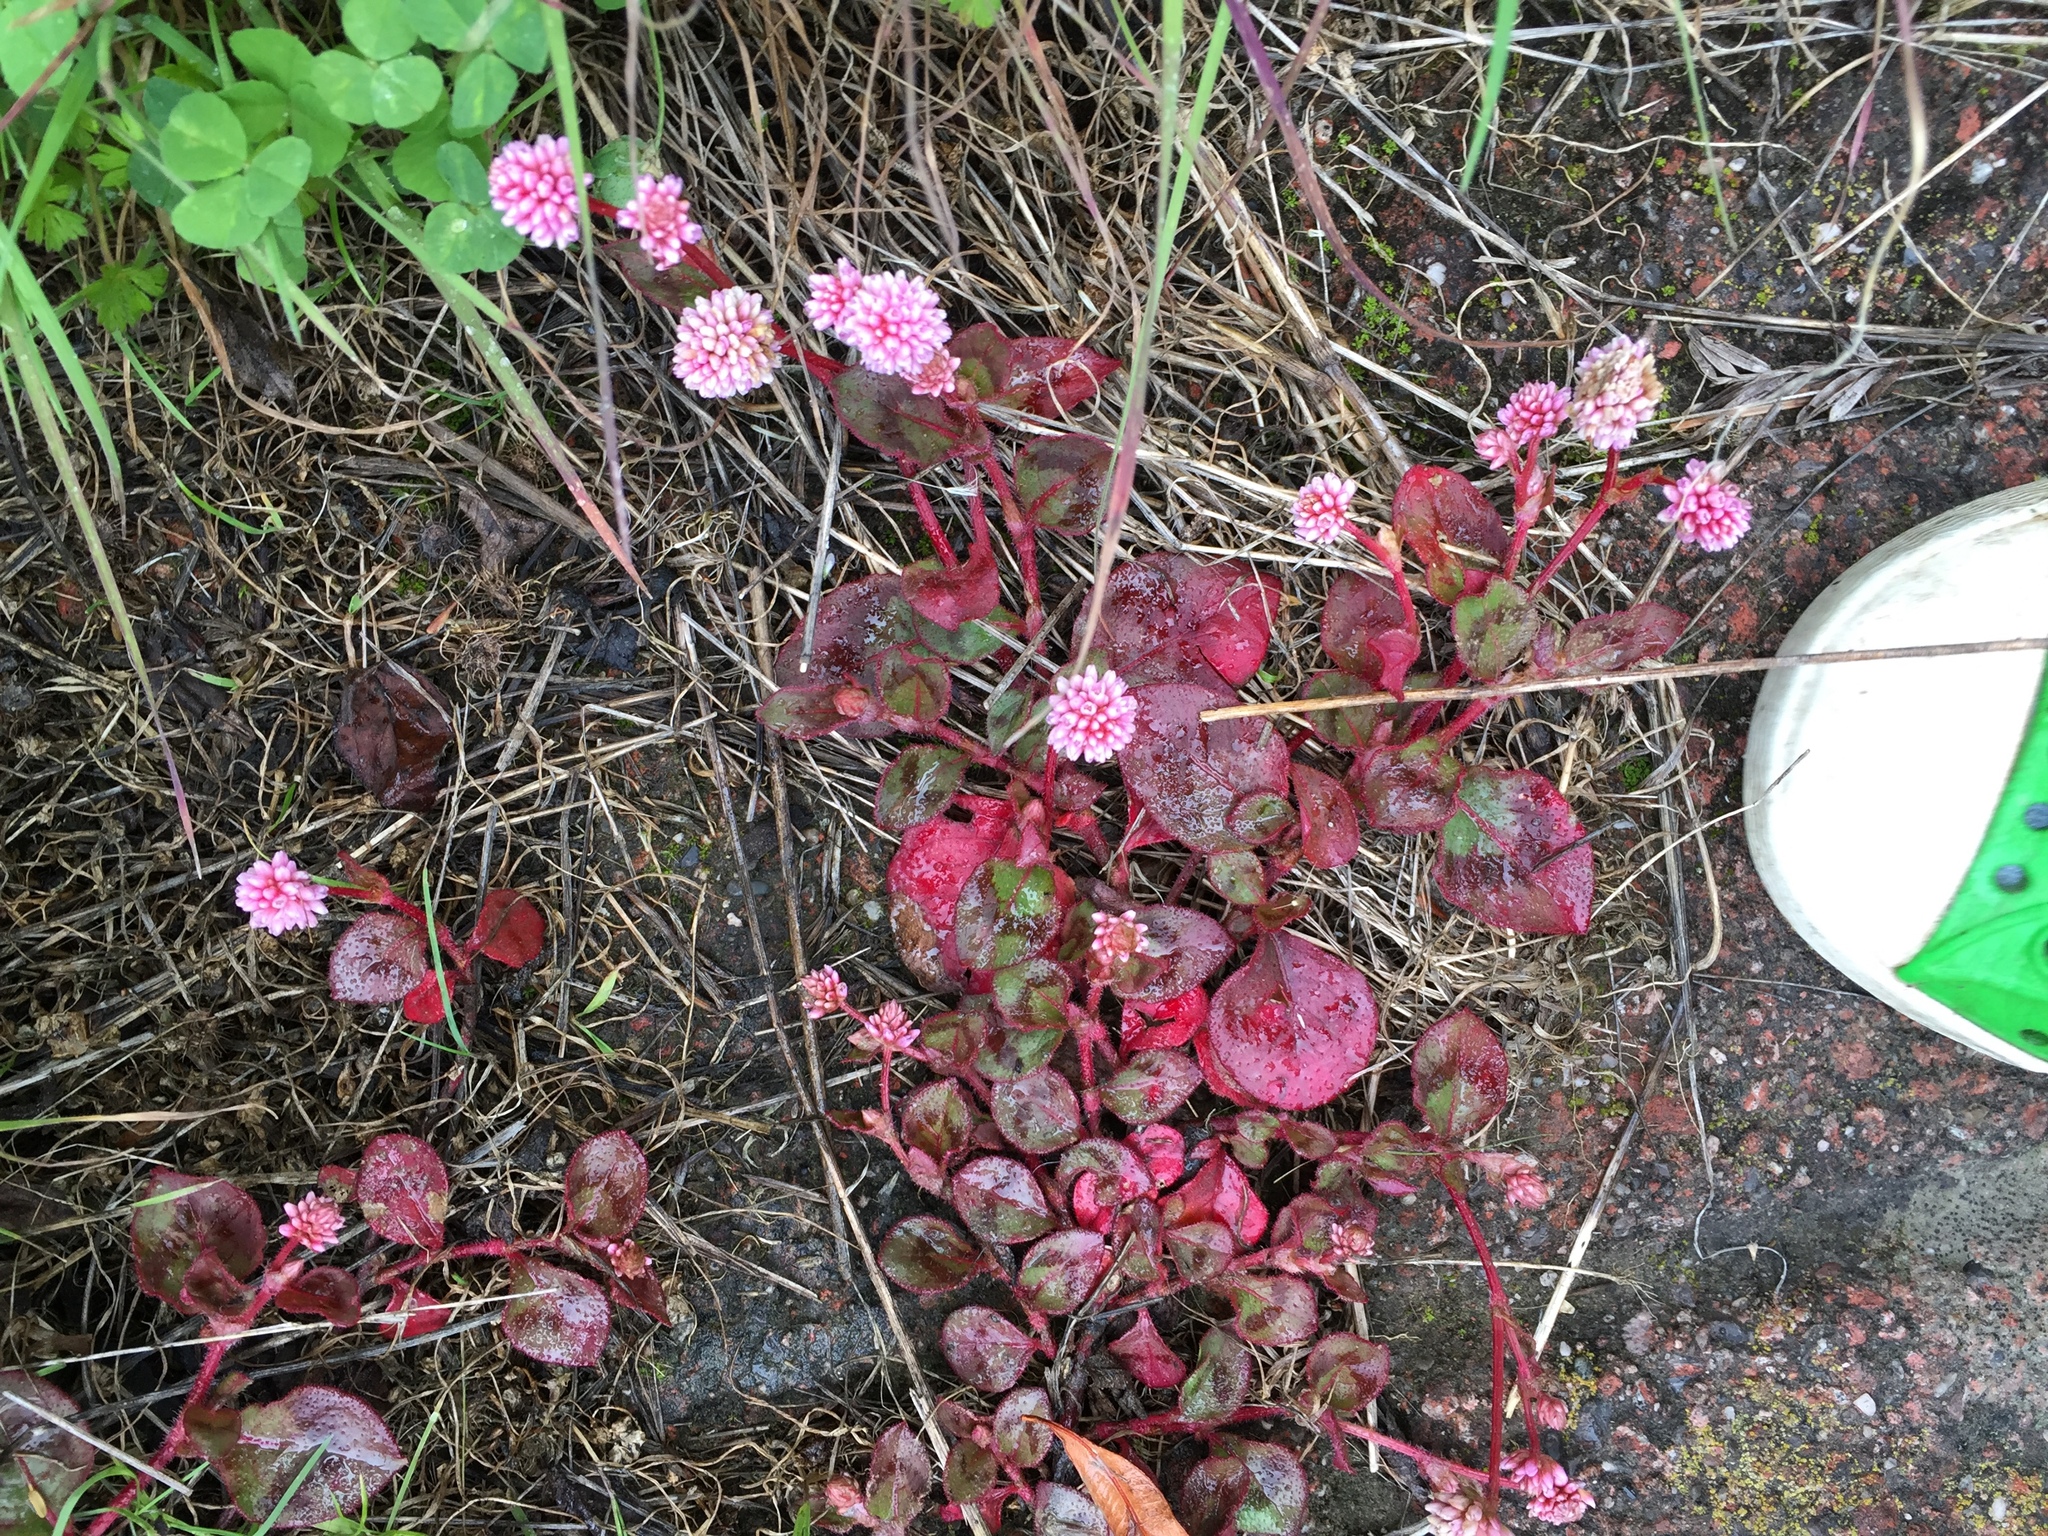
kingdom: Plantae
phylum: Tracheophyta
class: Magnoliopsida
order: Caryophyllales
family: Polygonaceae
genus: Persicaria
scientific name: Persicaria capitata
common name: Pinkhead smartweed
